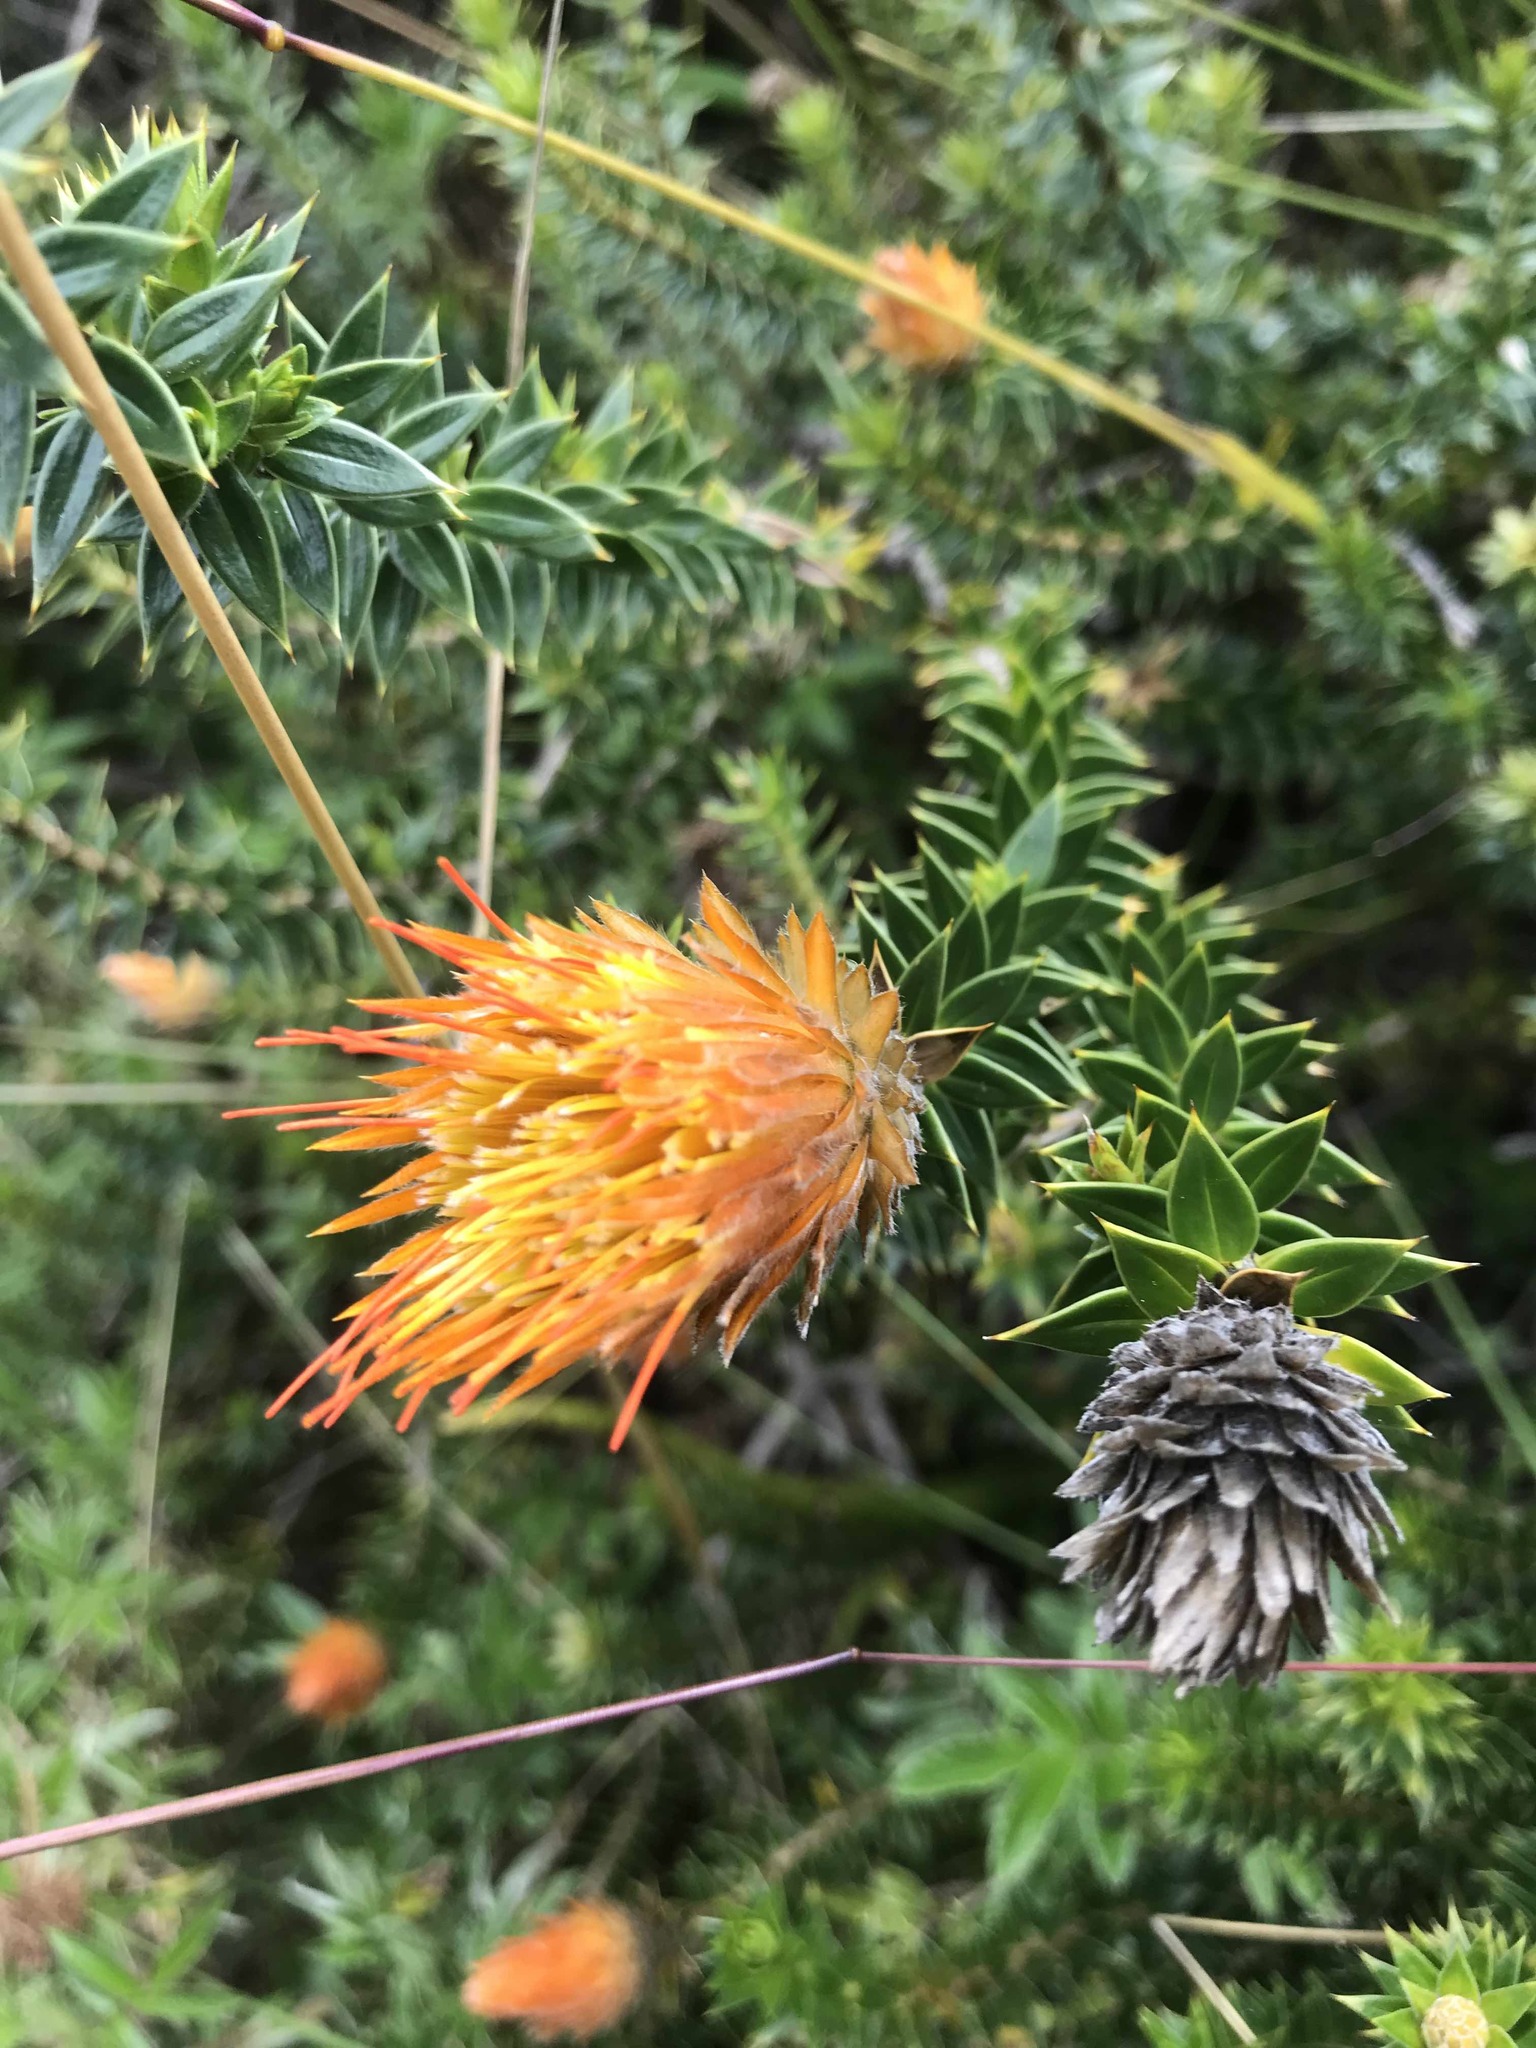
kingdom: Plantae
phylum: Tracheophyta
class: Magnoliopsida
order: Asterales
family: Asteraceae
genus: Chuquiraga
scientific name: Chuquiraga jussieui
